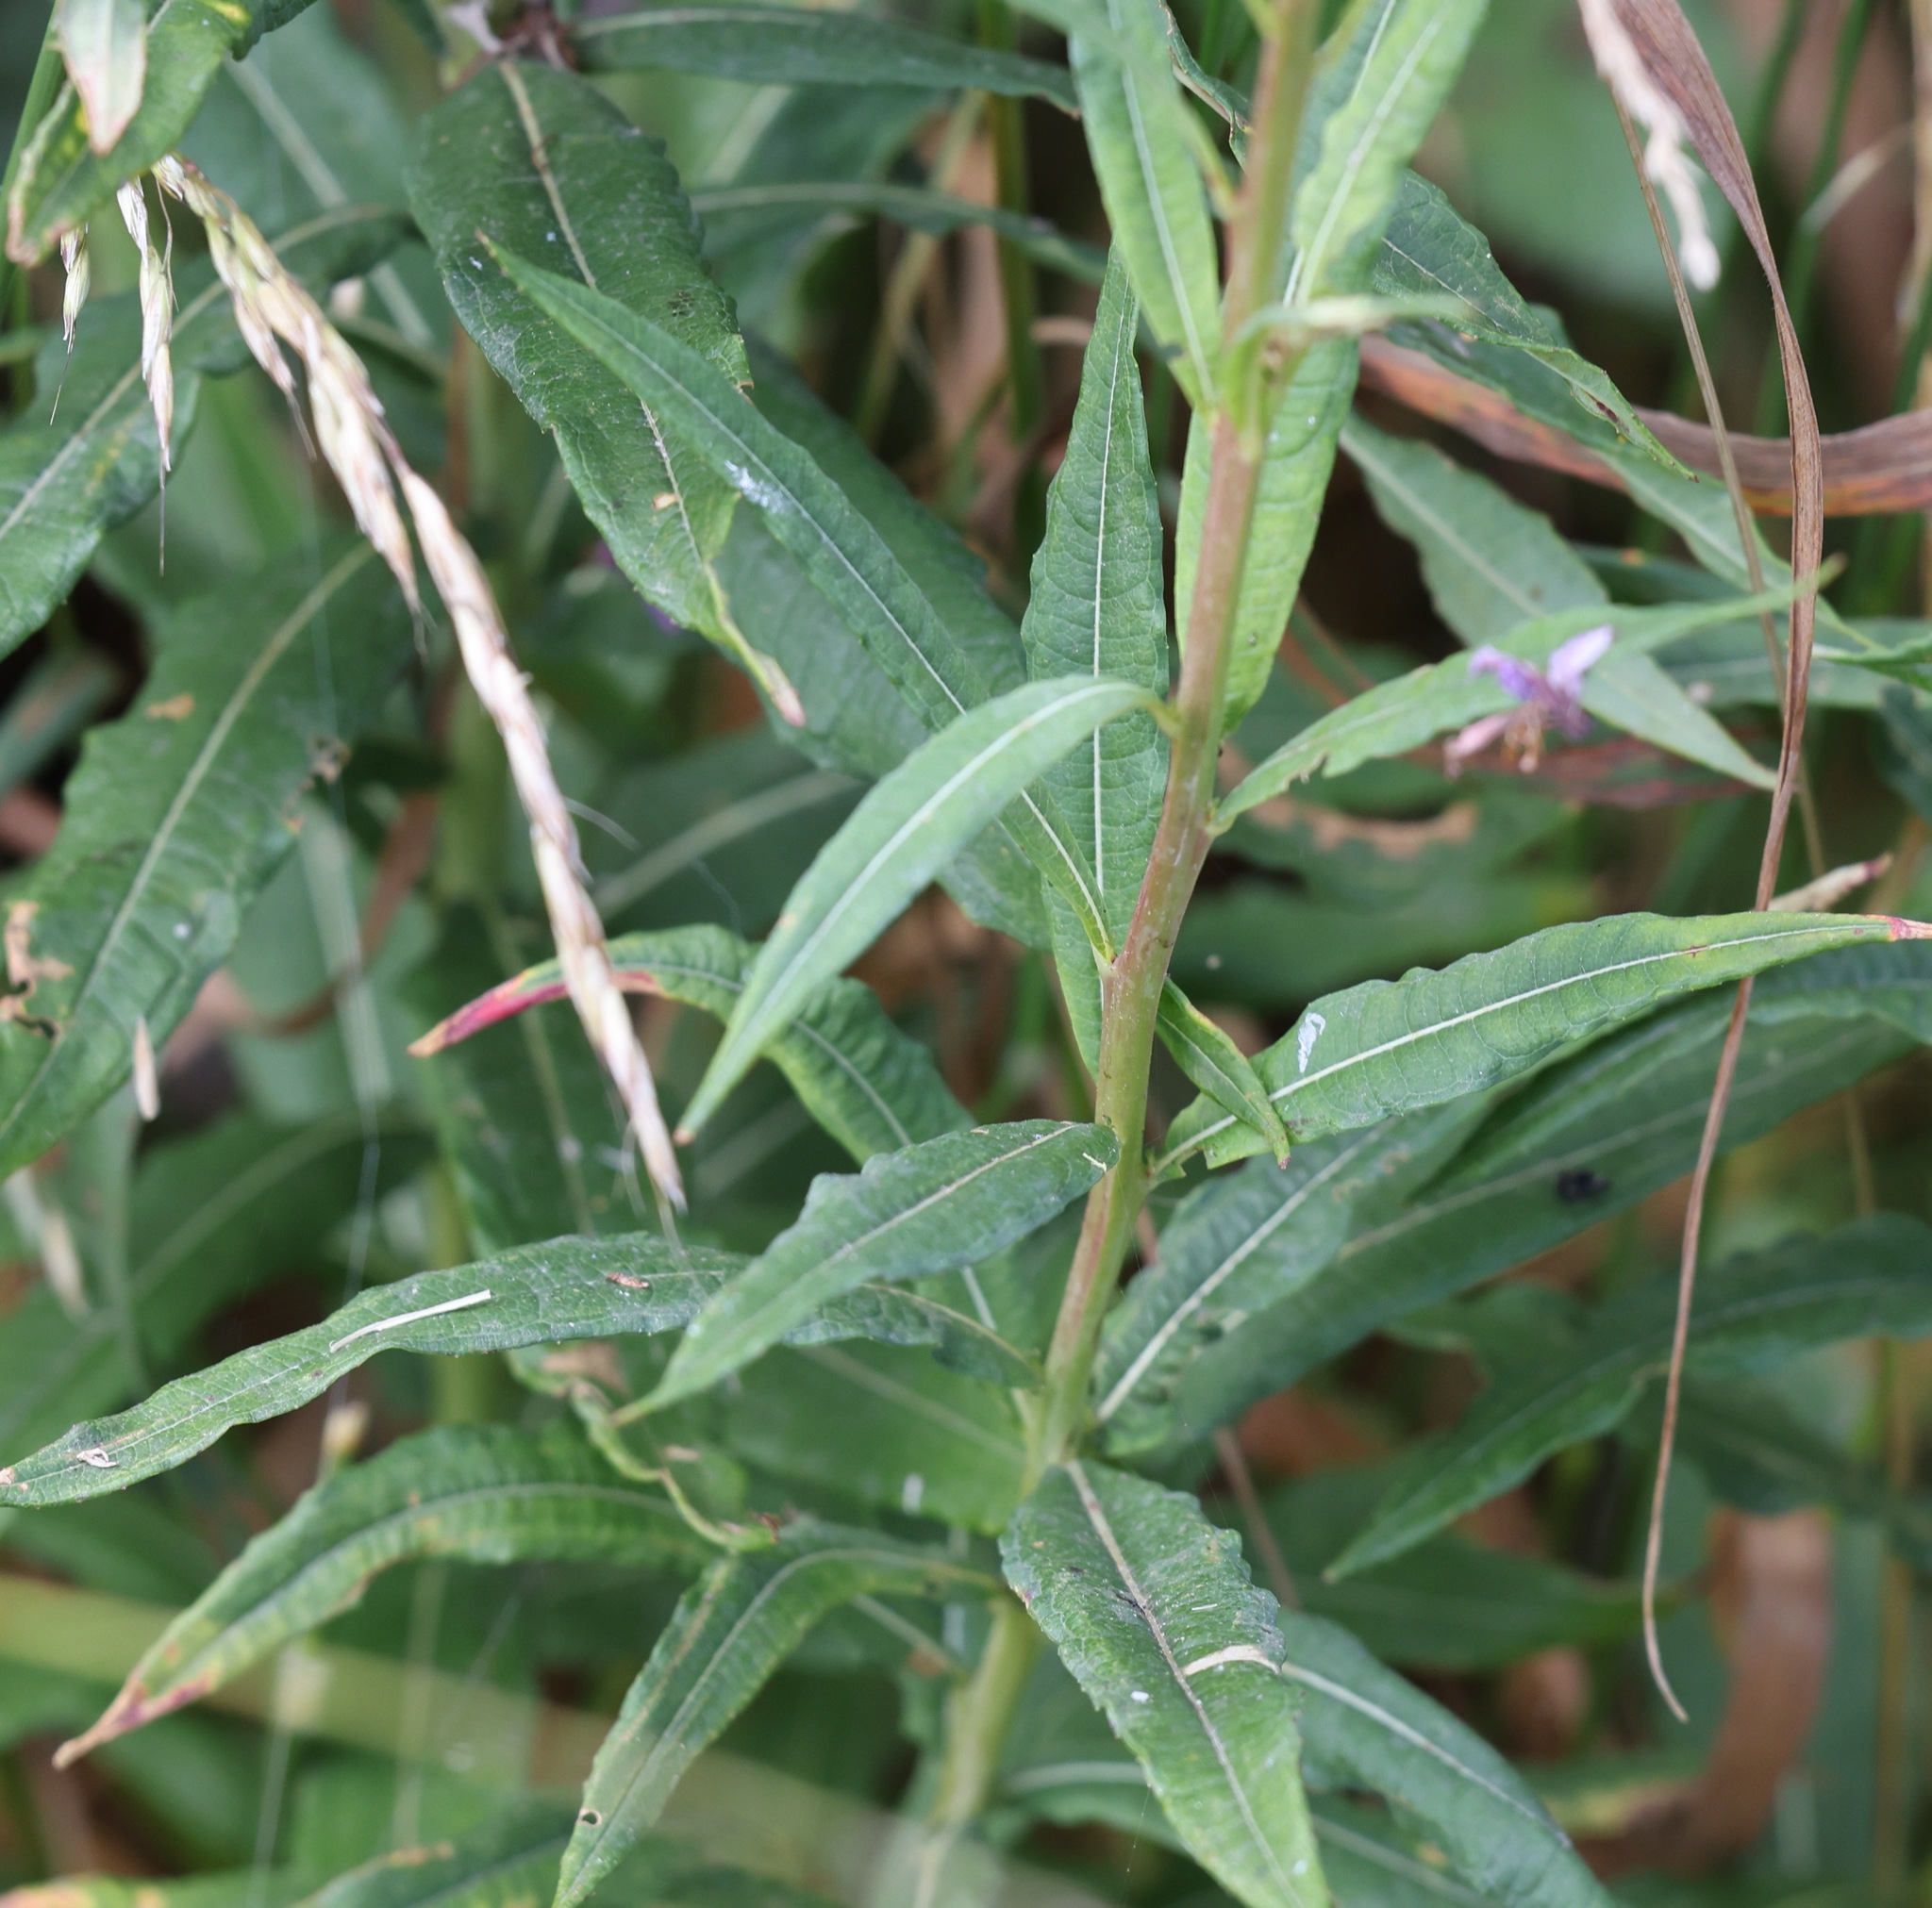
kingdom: Plantae
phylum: Tracheophyta
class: Magnoliopsida
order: Myrtales
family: Onagraceae
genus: Chamaenerion
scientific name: Chamaenerion angustifolium
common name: Fireweed
